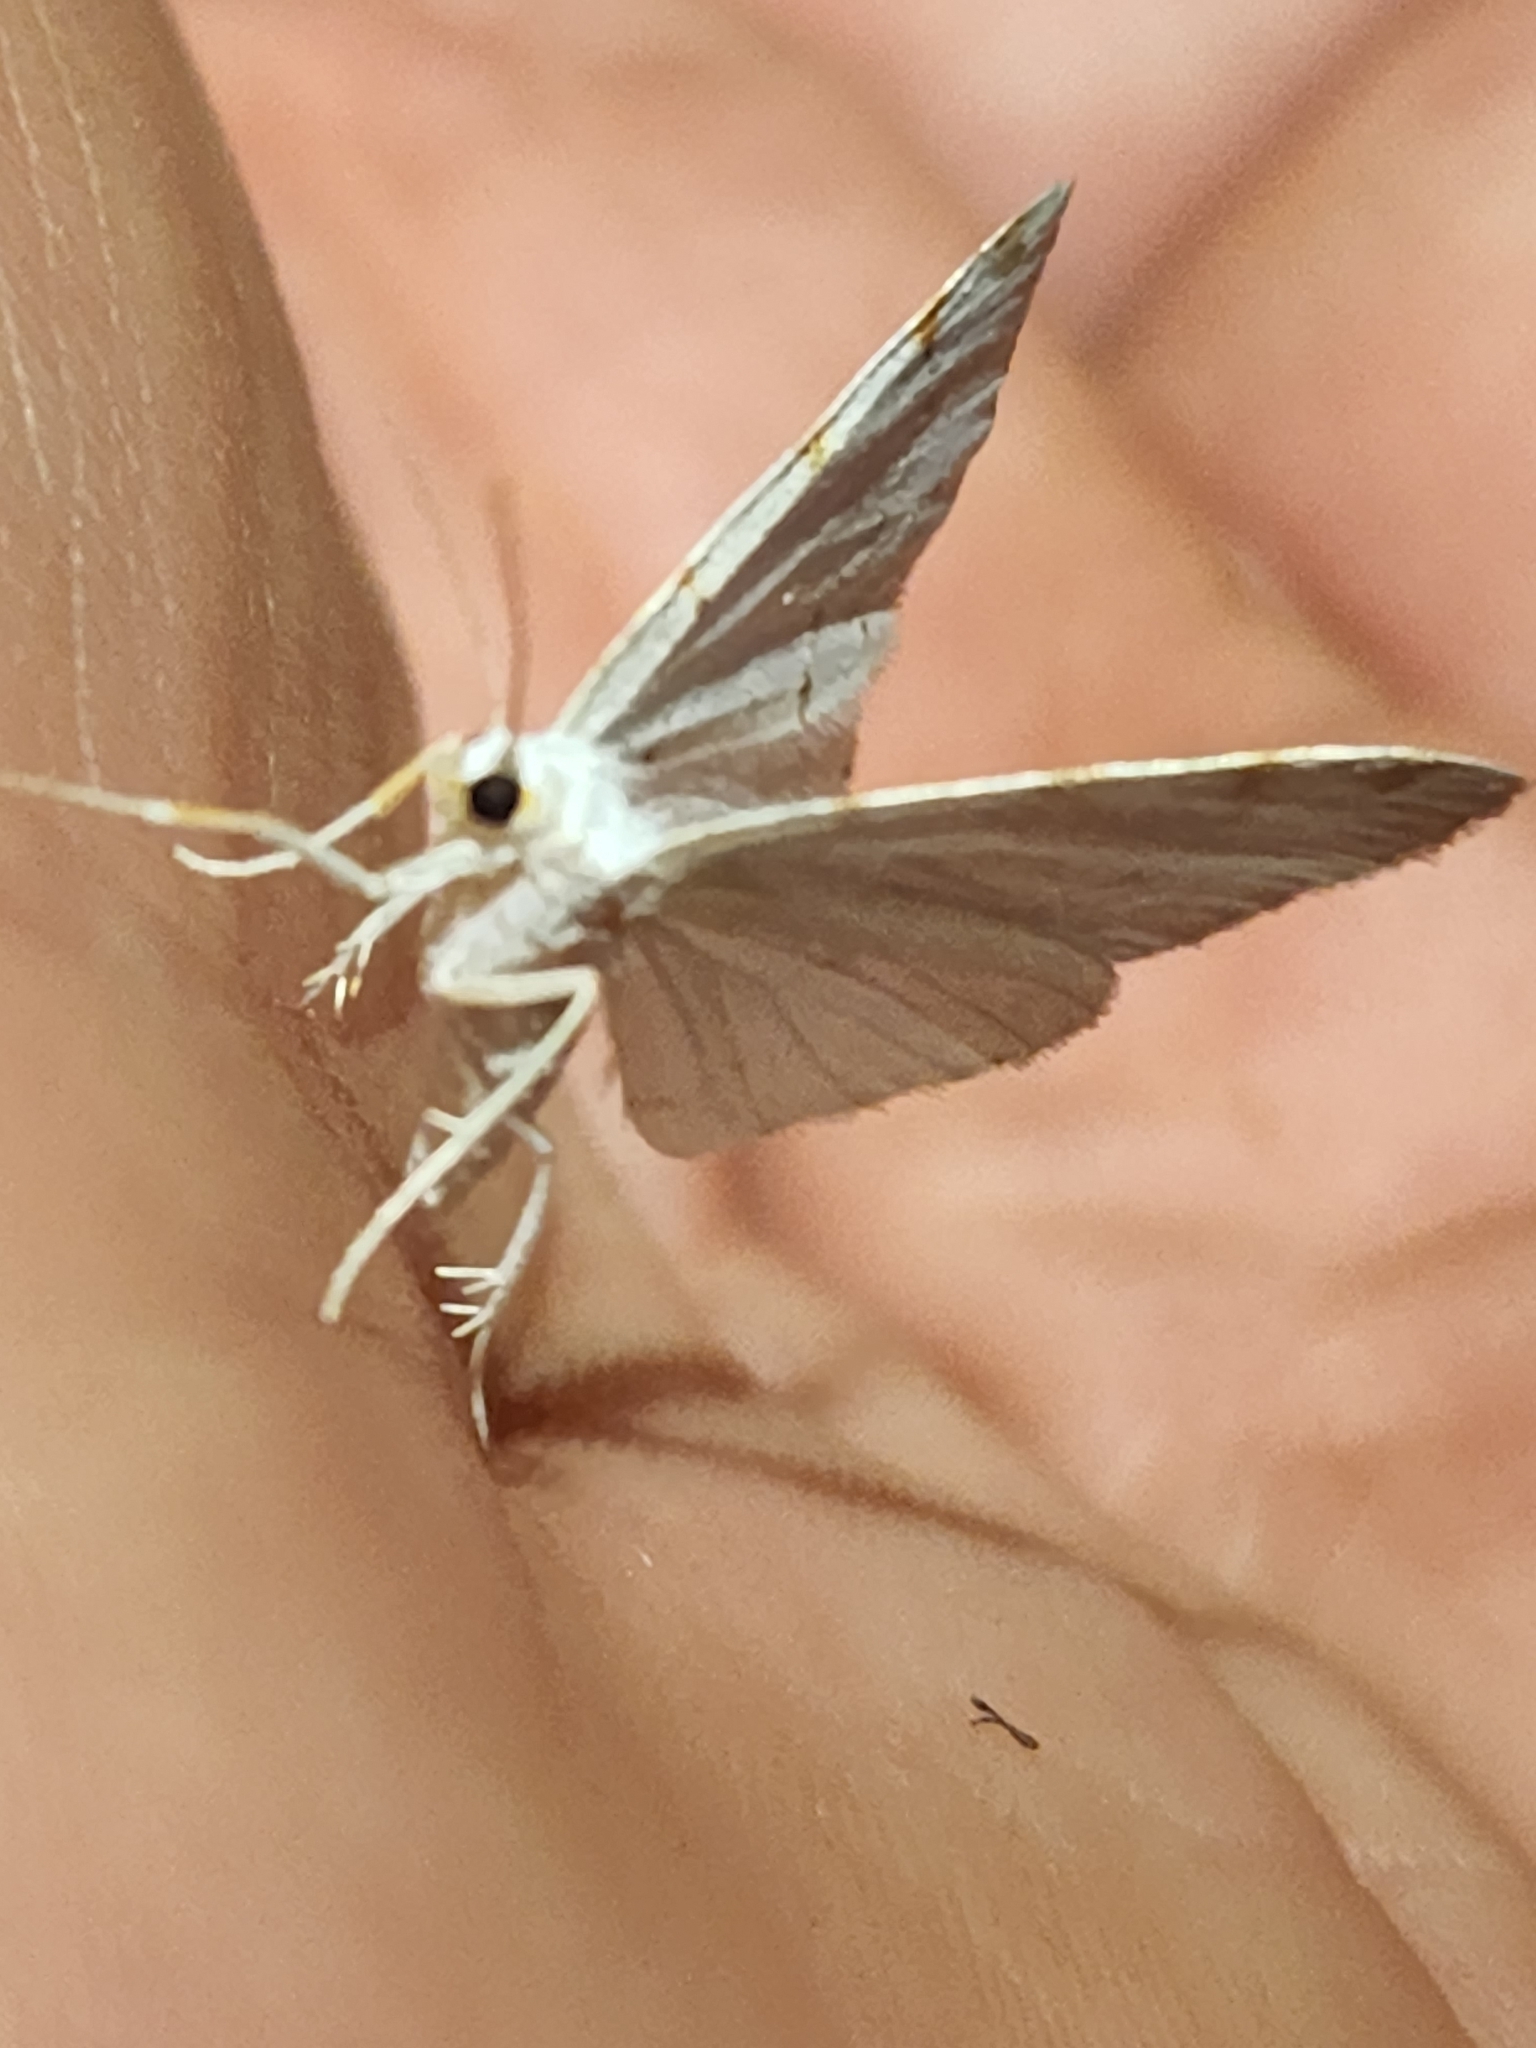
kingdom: Animalia
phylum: Arthropoda
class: Insecta
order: Lepidoptera
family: Geometridae
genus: Macaria
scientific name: Macaria pustularia
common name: Lesser maple spanworm moth
